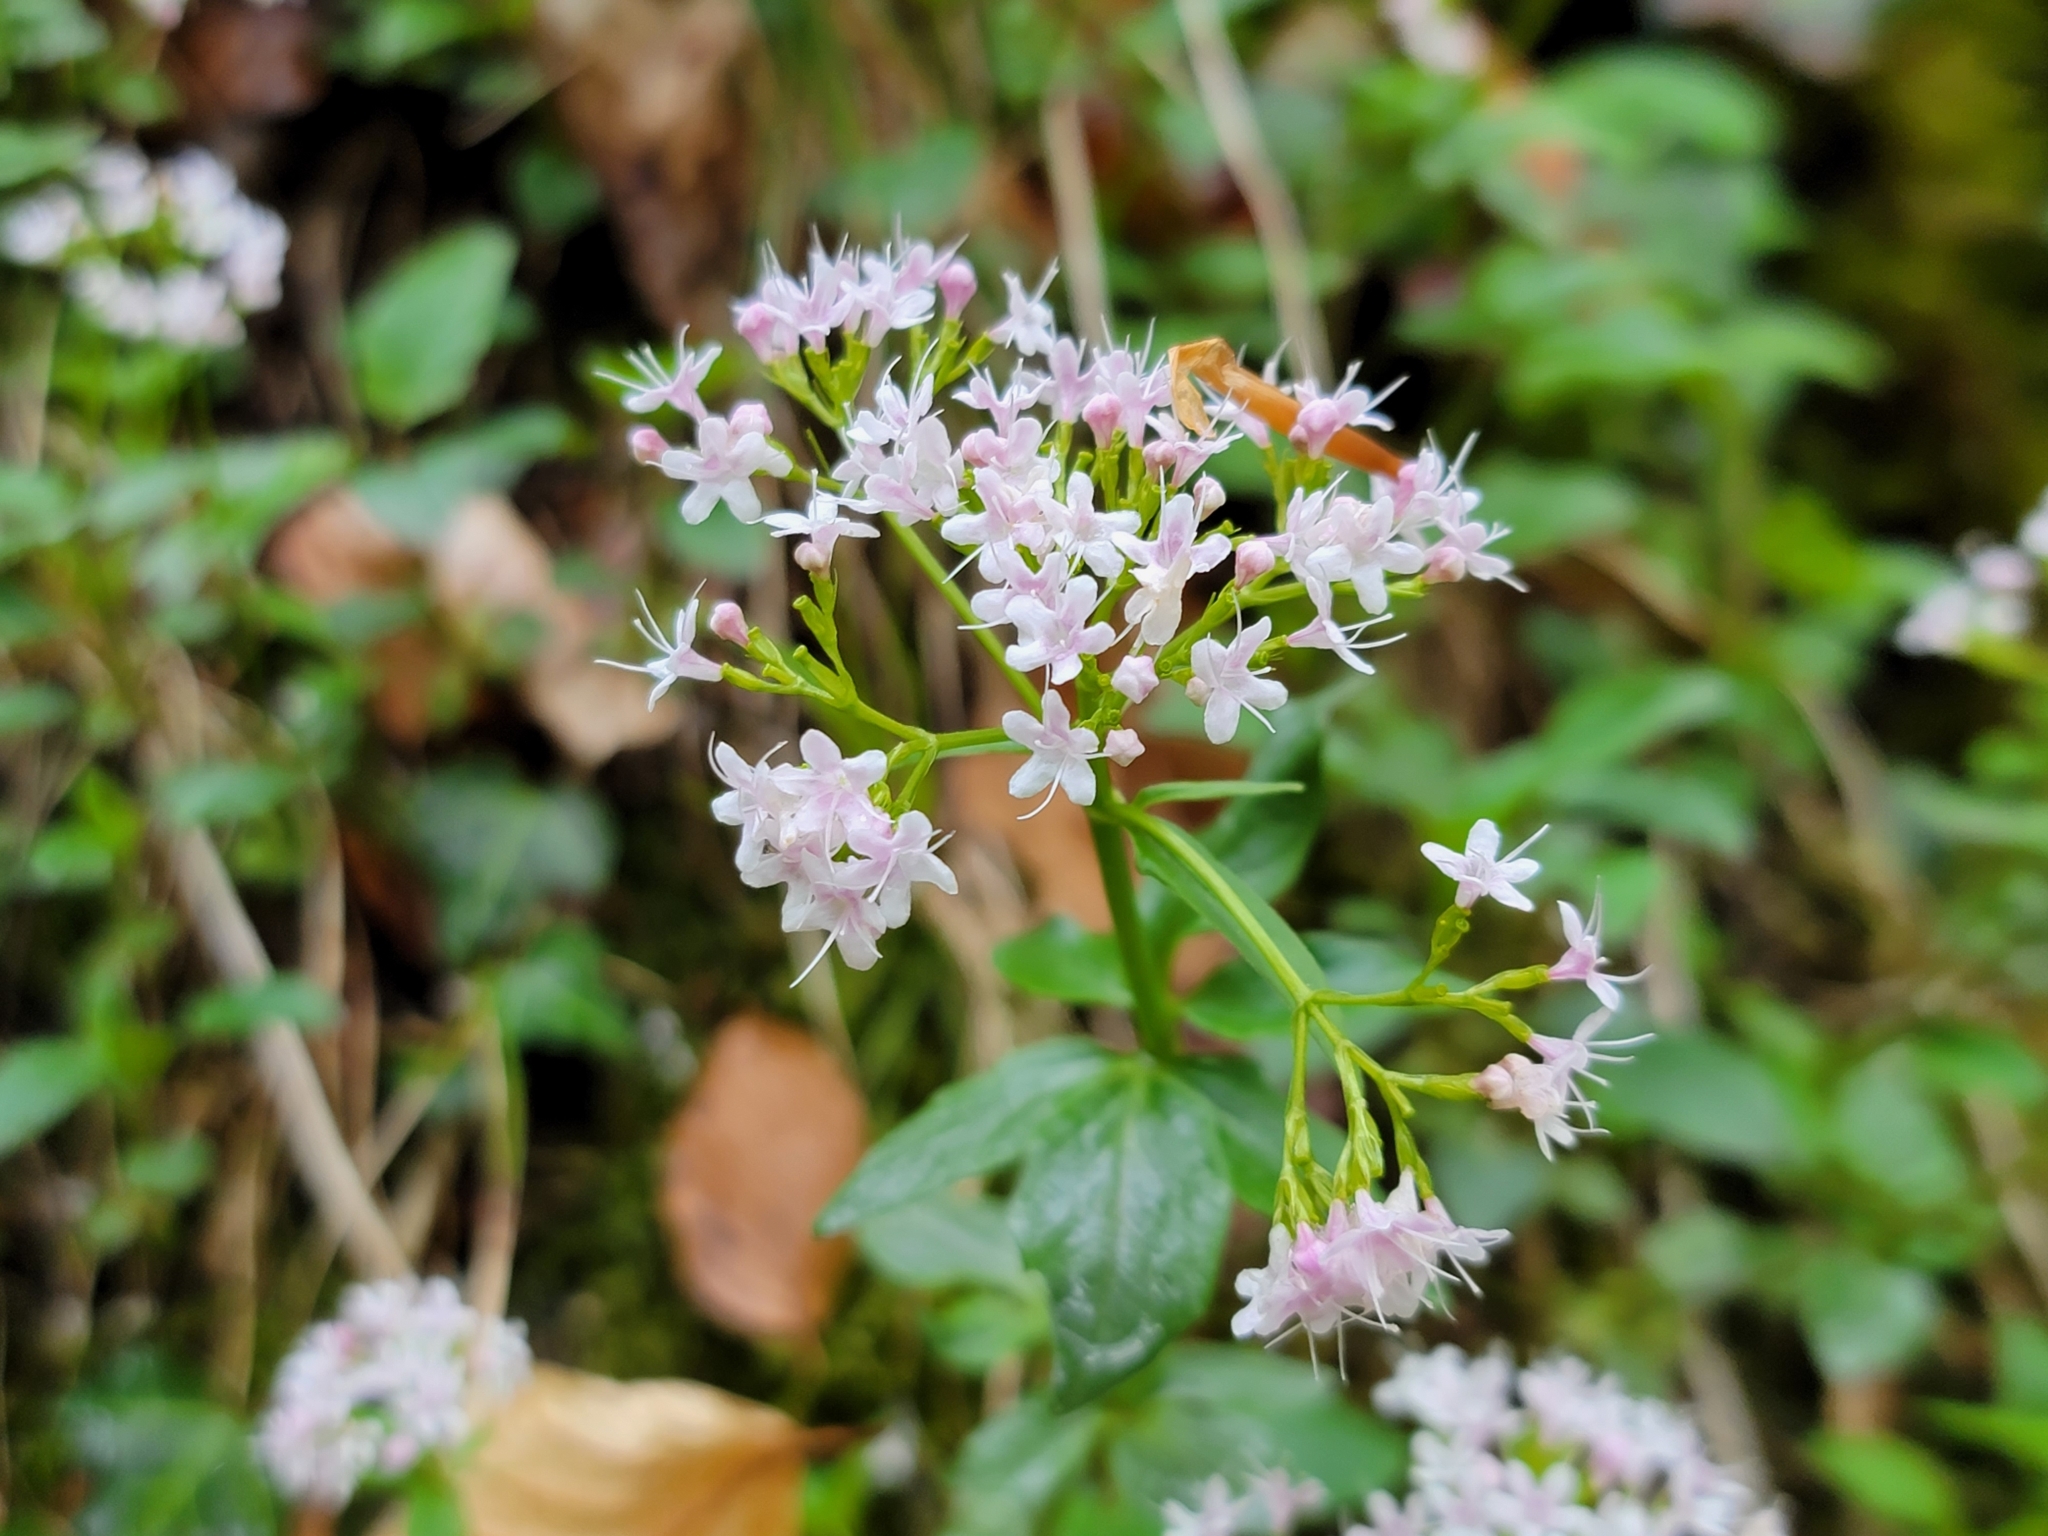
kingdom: Plantae
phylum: Tracheophyta
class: Magnoliopsida
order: Dipsacales
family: Caprifoliaceae
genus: Valeriana
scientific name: Valeriana tripteris
